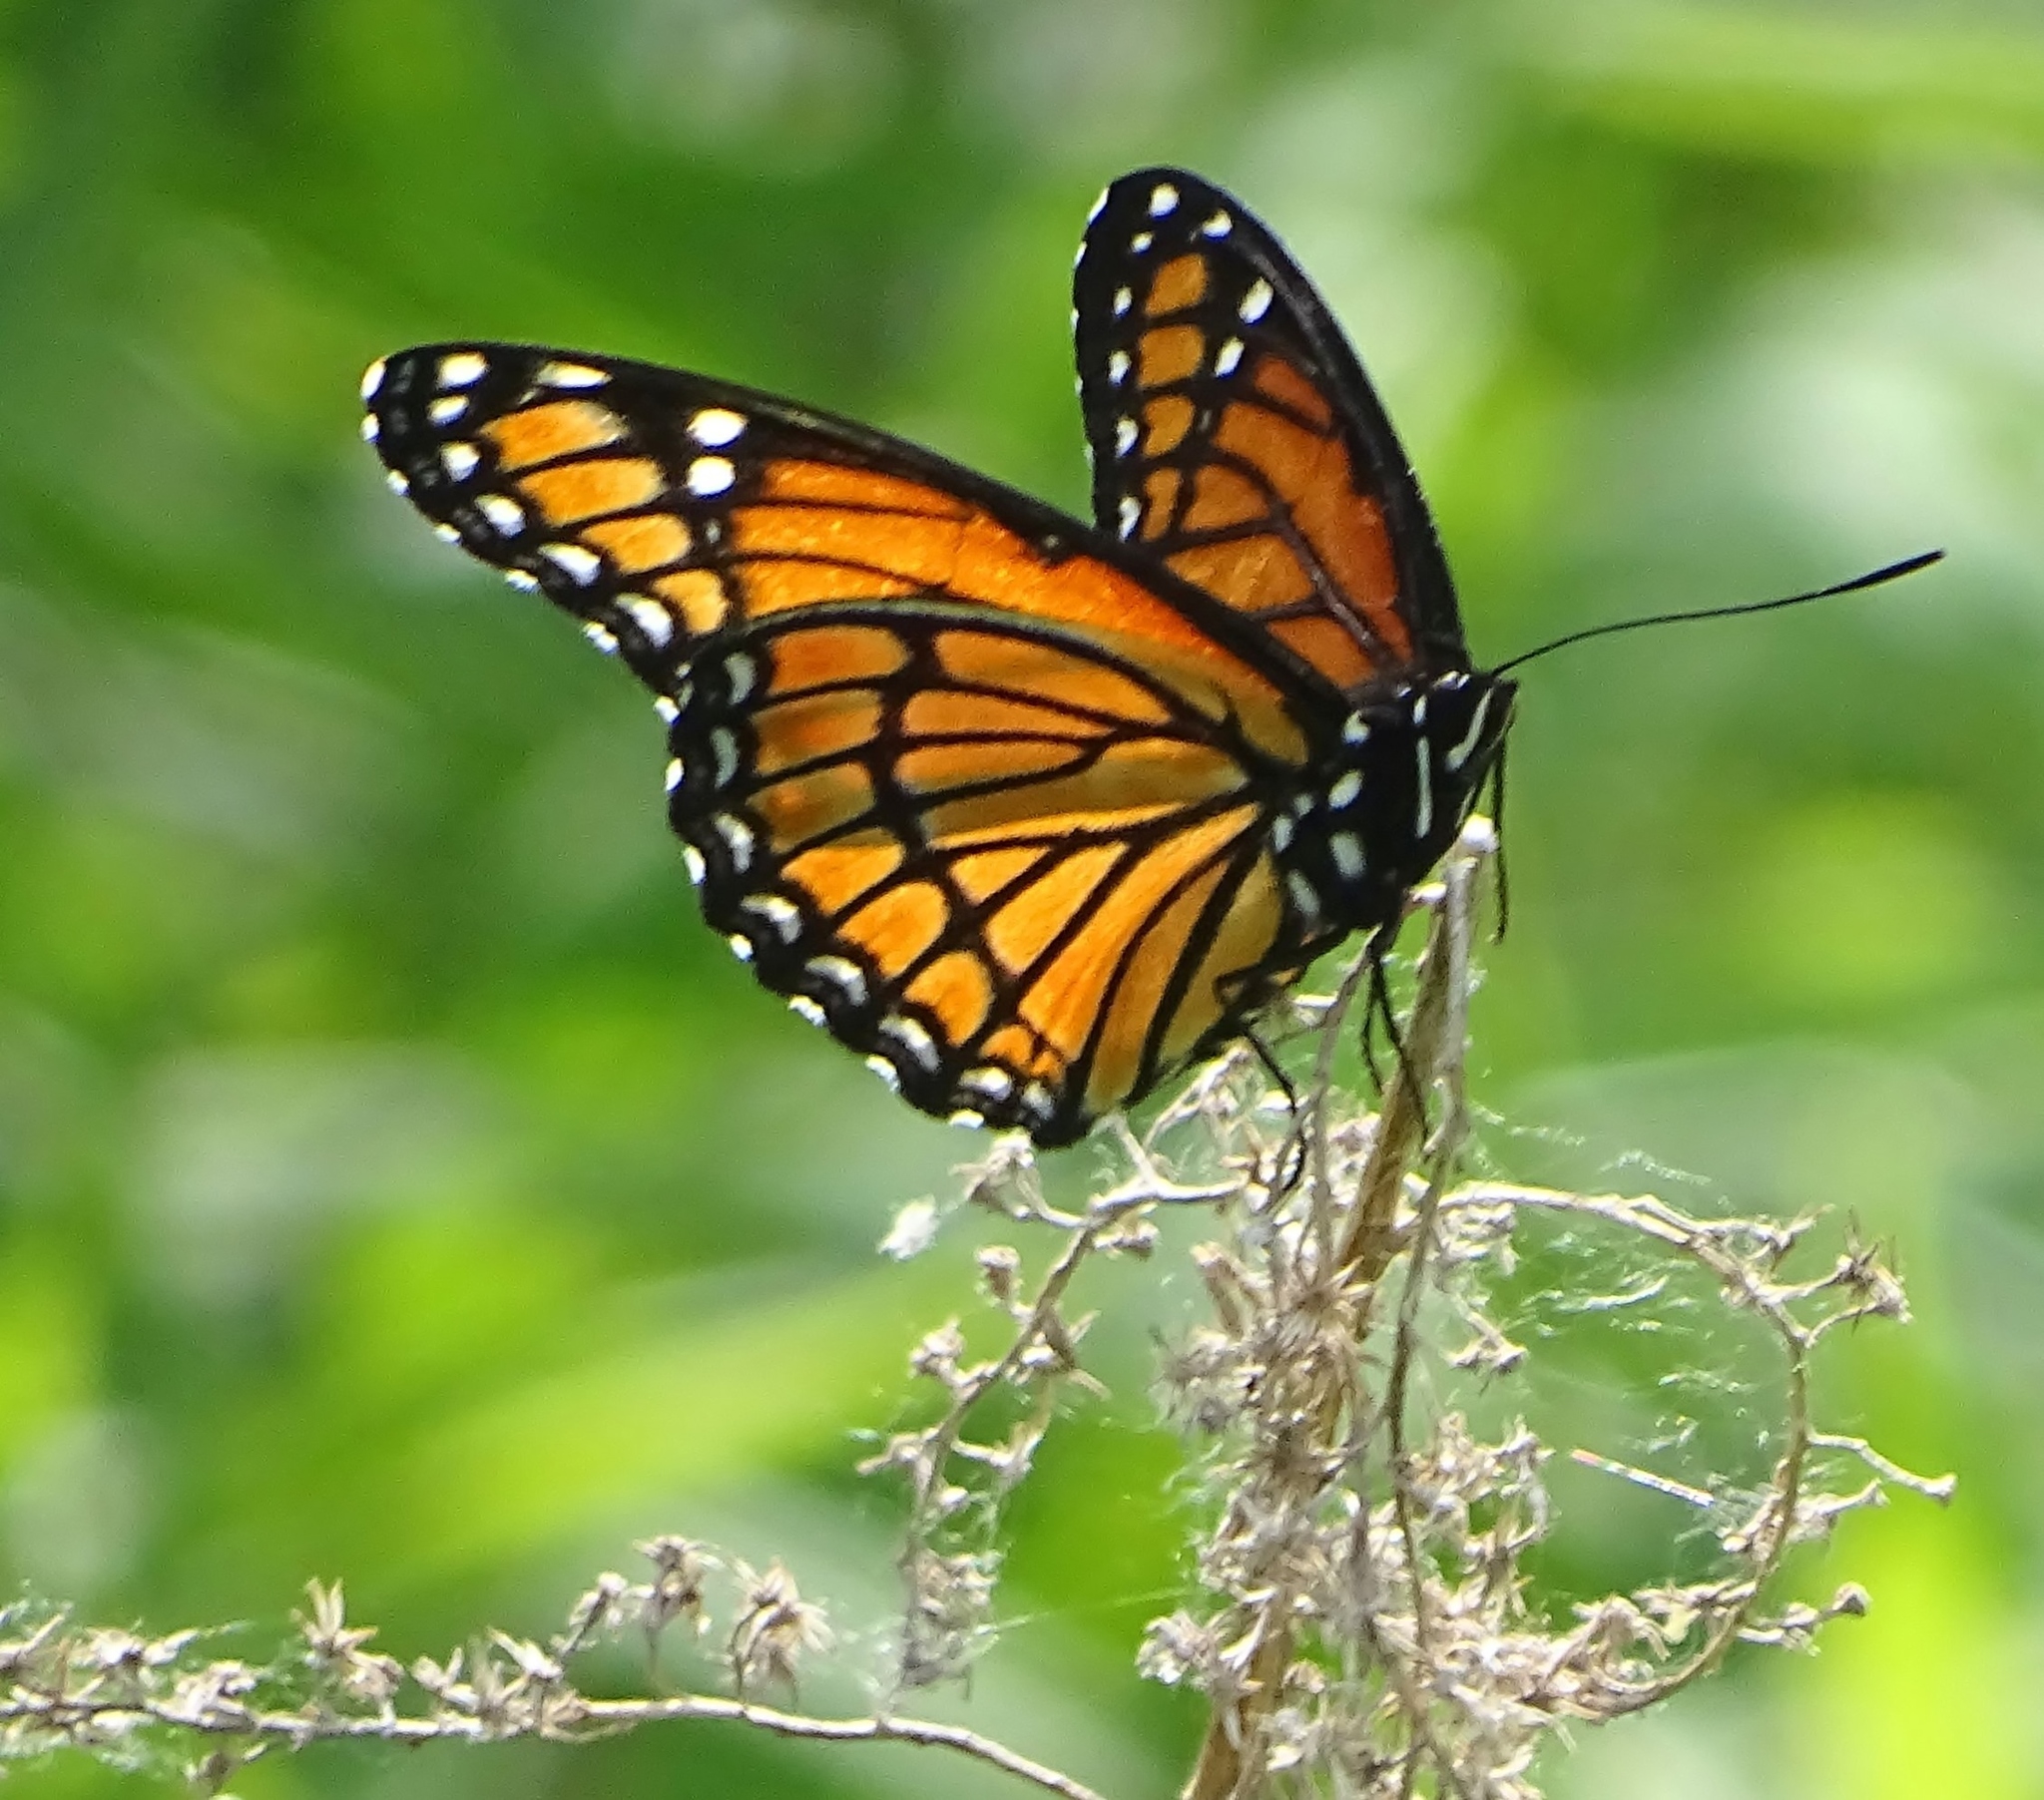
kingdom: Animalia
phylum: Arthropoda
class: Insecta
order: Lepidoptera
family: Nymphalidae
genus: Limenitis
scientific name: Limenitis archippus
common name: Viceroy
